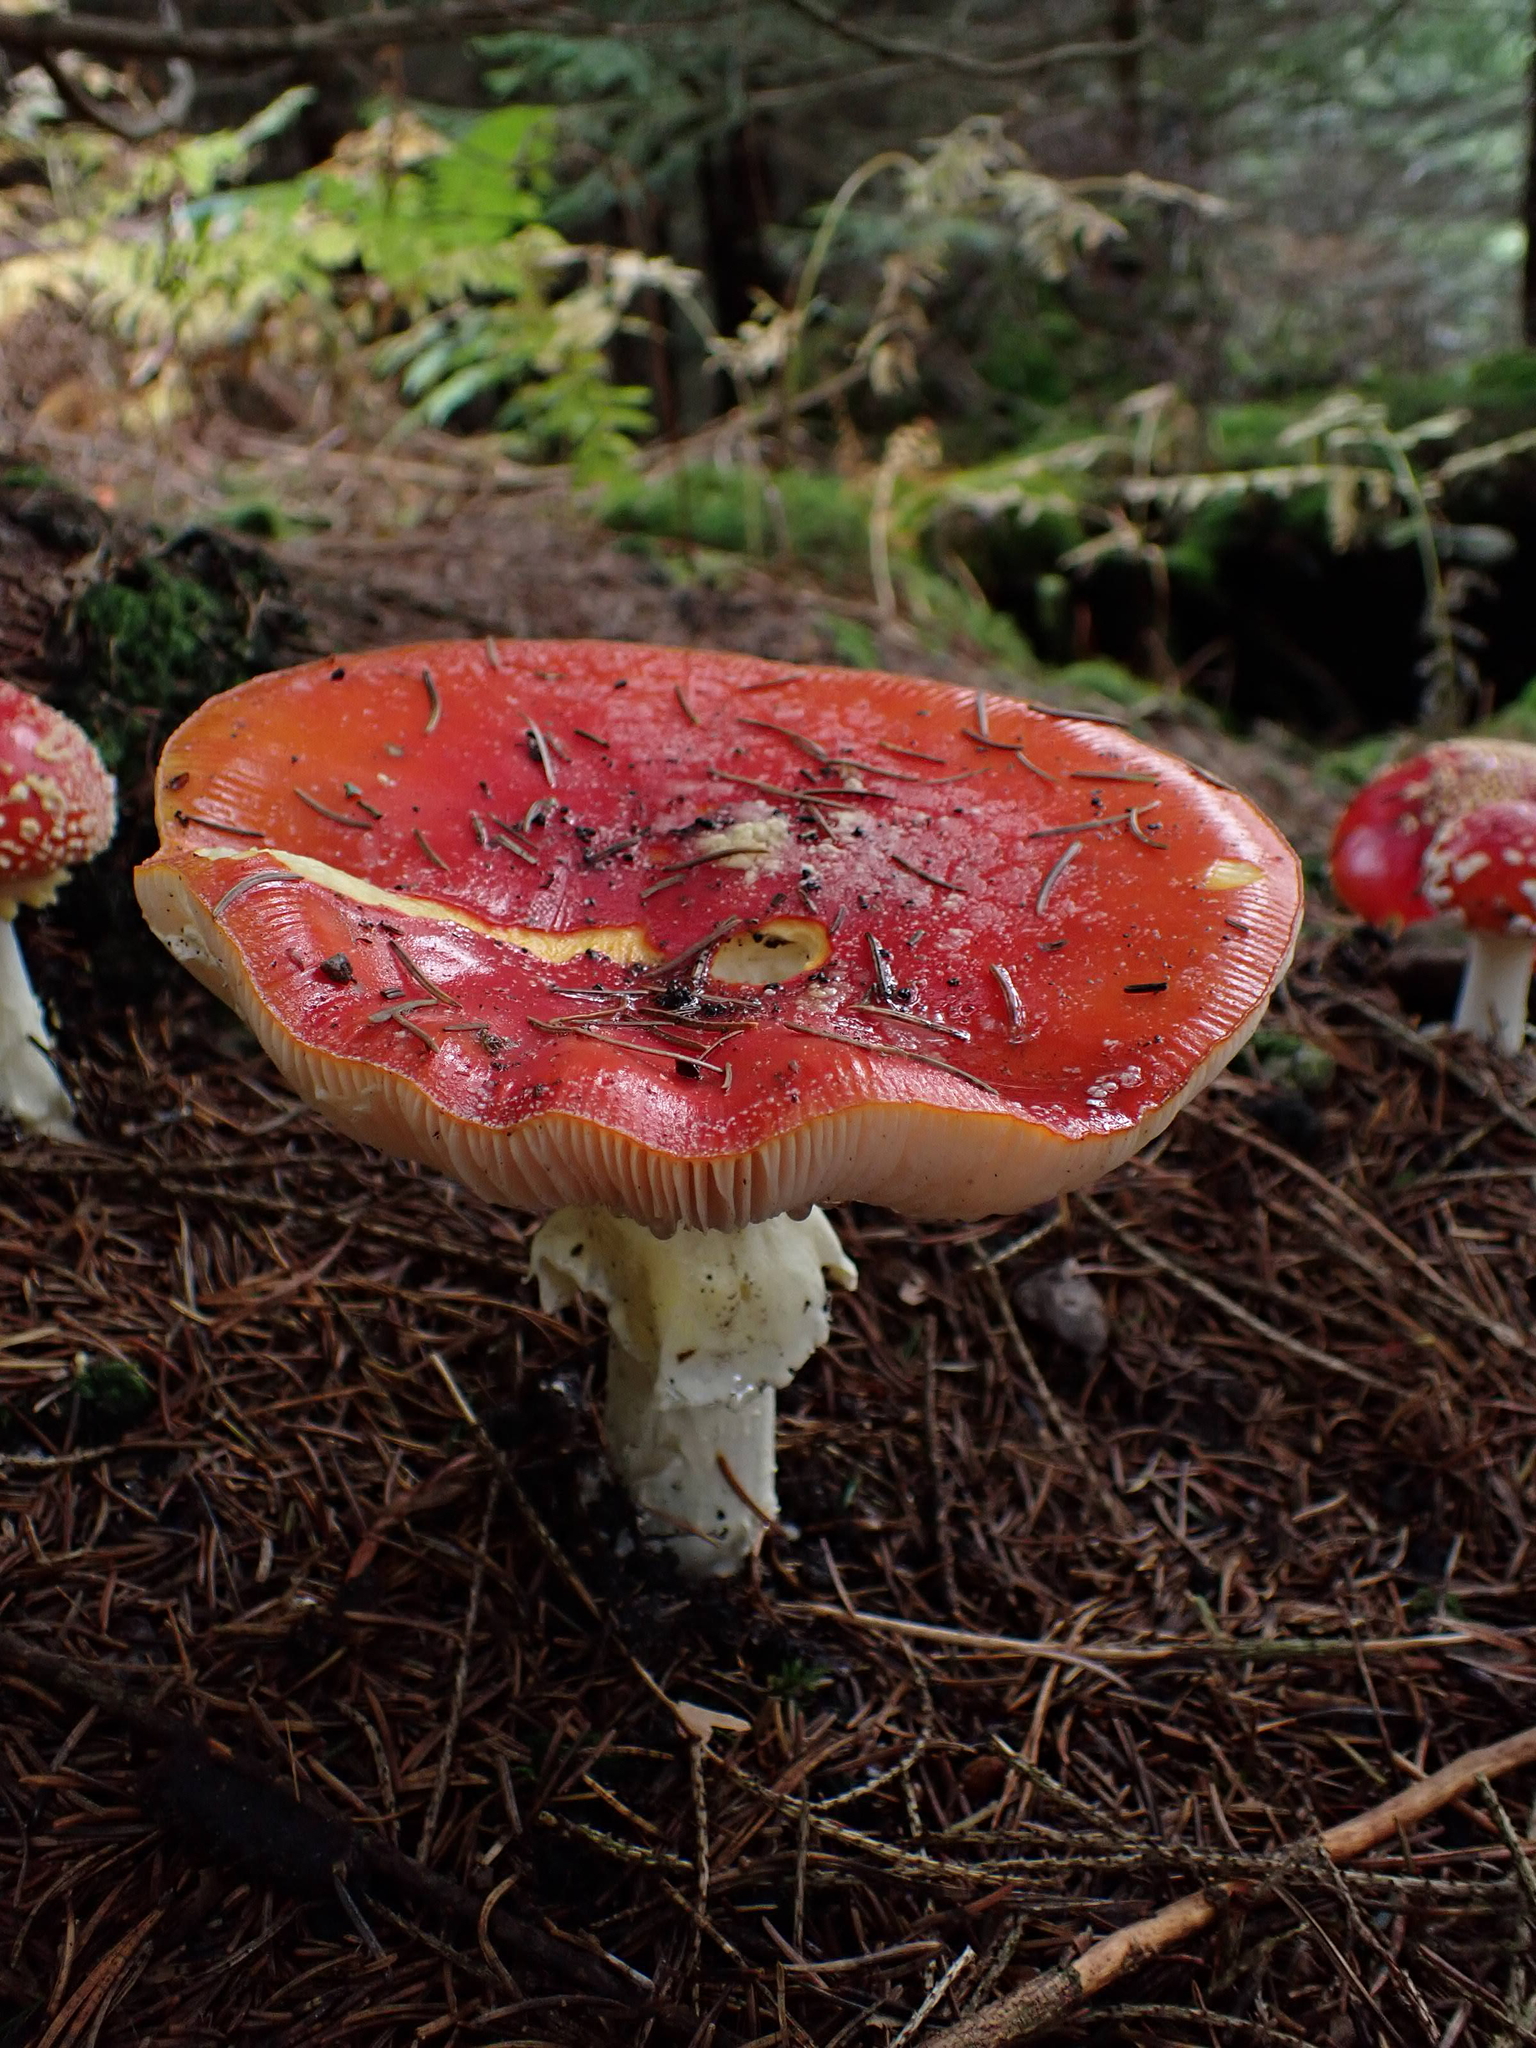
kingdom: Fungi
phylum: Basidiomycota
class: Agaricomycetes
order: Agaricales
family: Amanitaceae
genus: Amanita
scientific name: Amanita muscaria
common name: Fly agaric
